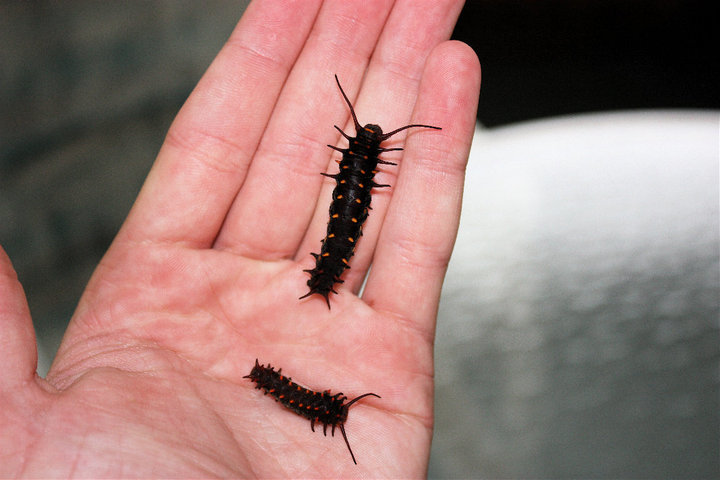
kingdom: Animalia
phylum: Arthropoda
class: Insecta
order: Lepidoptera
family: Papilionidae
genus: Battus
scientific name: Battus philenor
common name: Pipevine swallowtail
